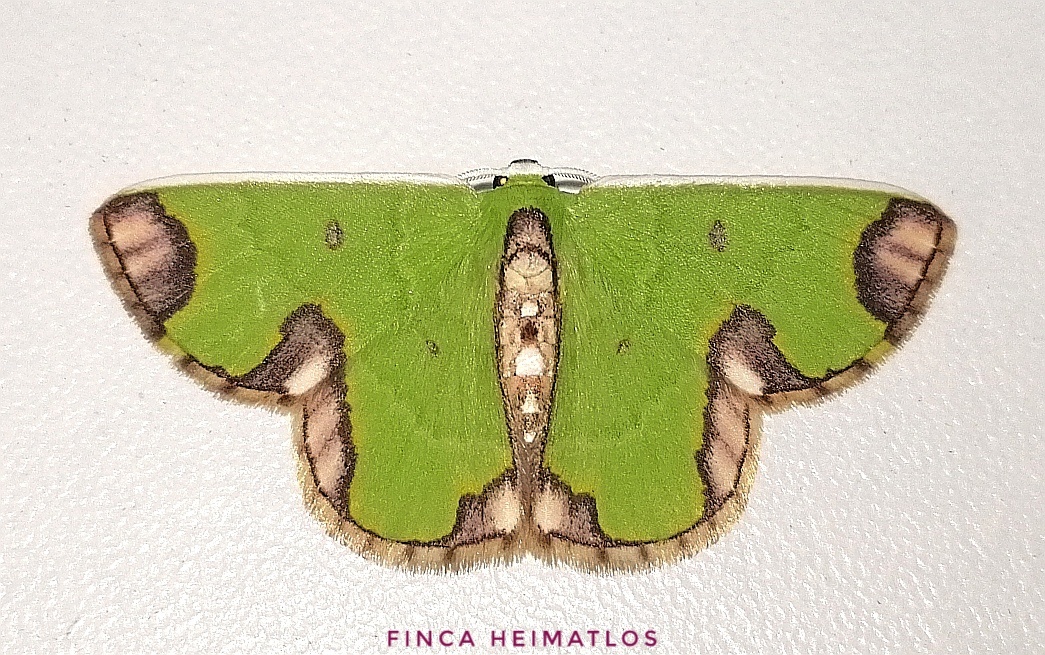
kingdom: Animalia
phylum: Arthropoda
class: Insecta
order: Lepidoptera
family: Geometridae
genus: Chavarriella
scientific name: Chavarriella porcius
